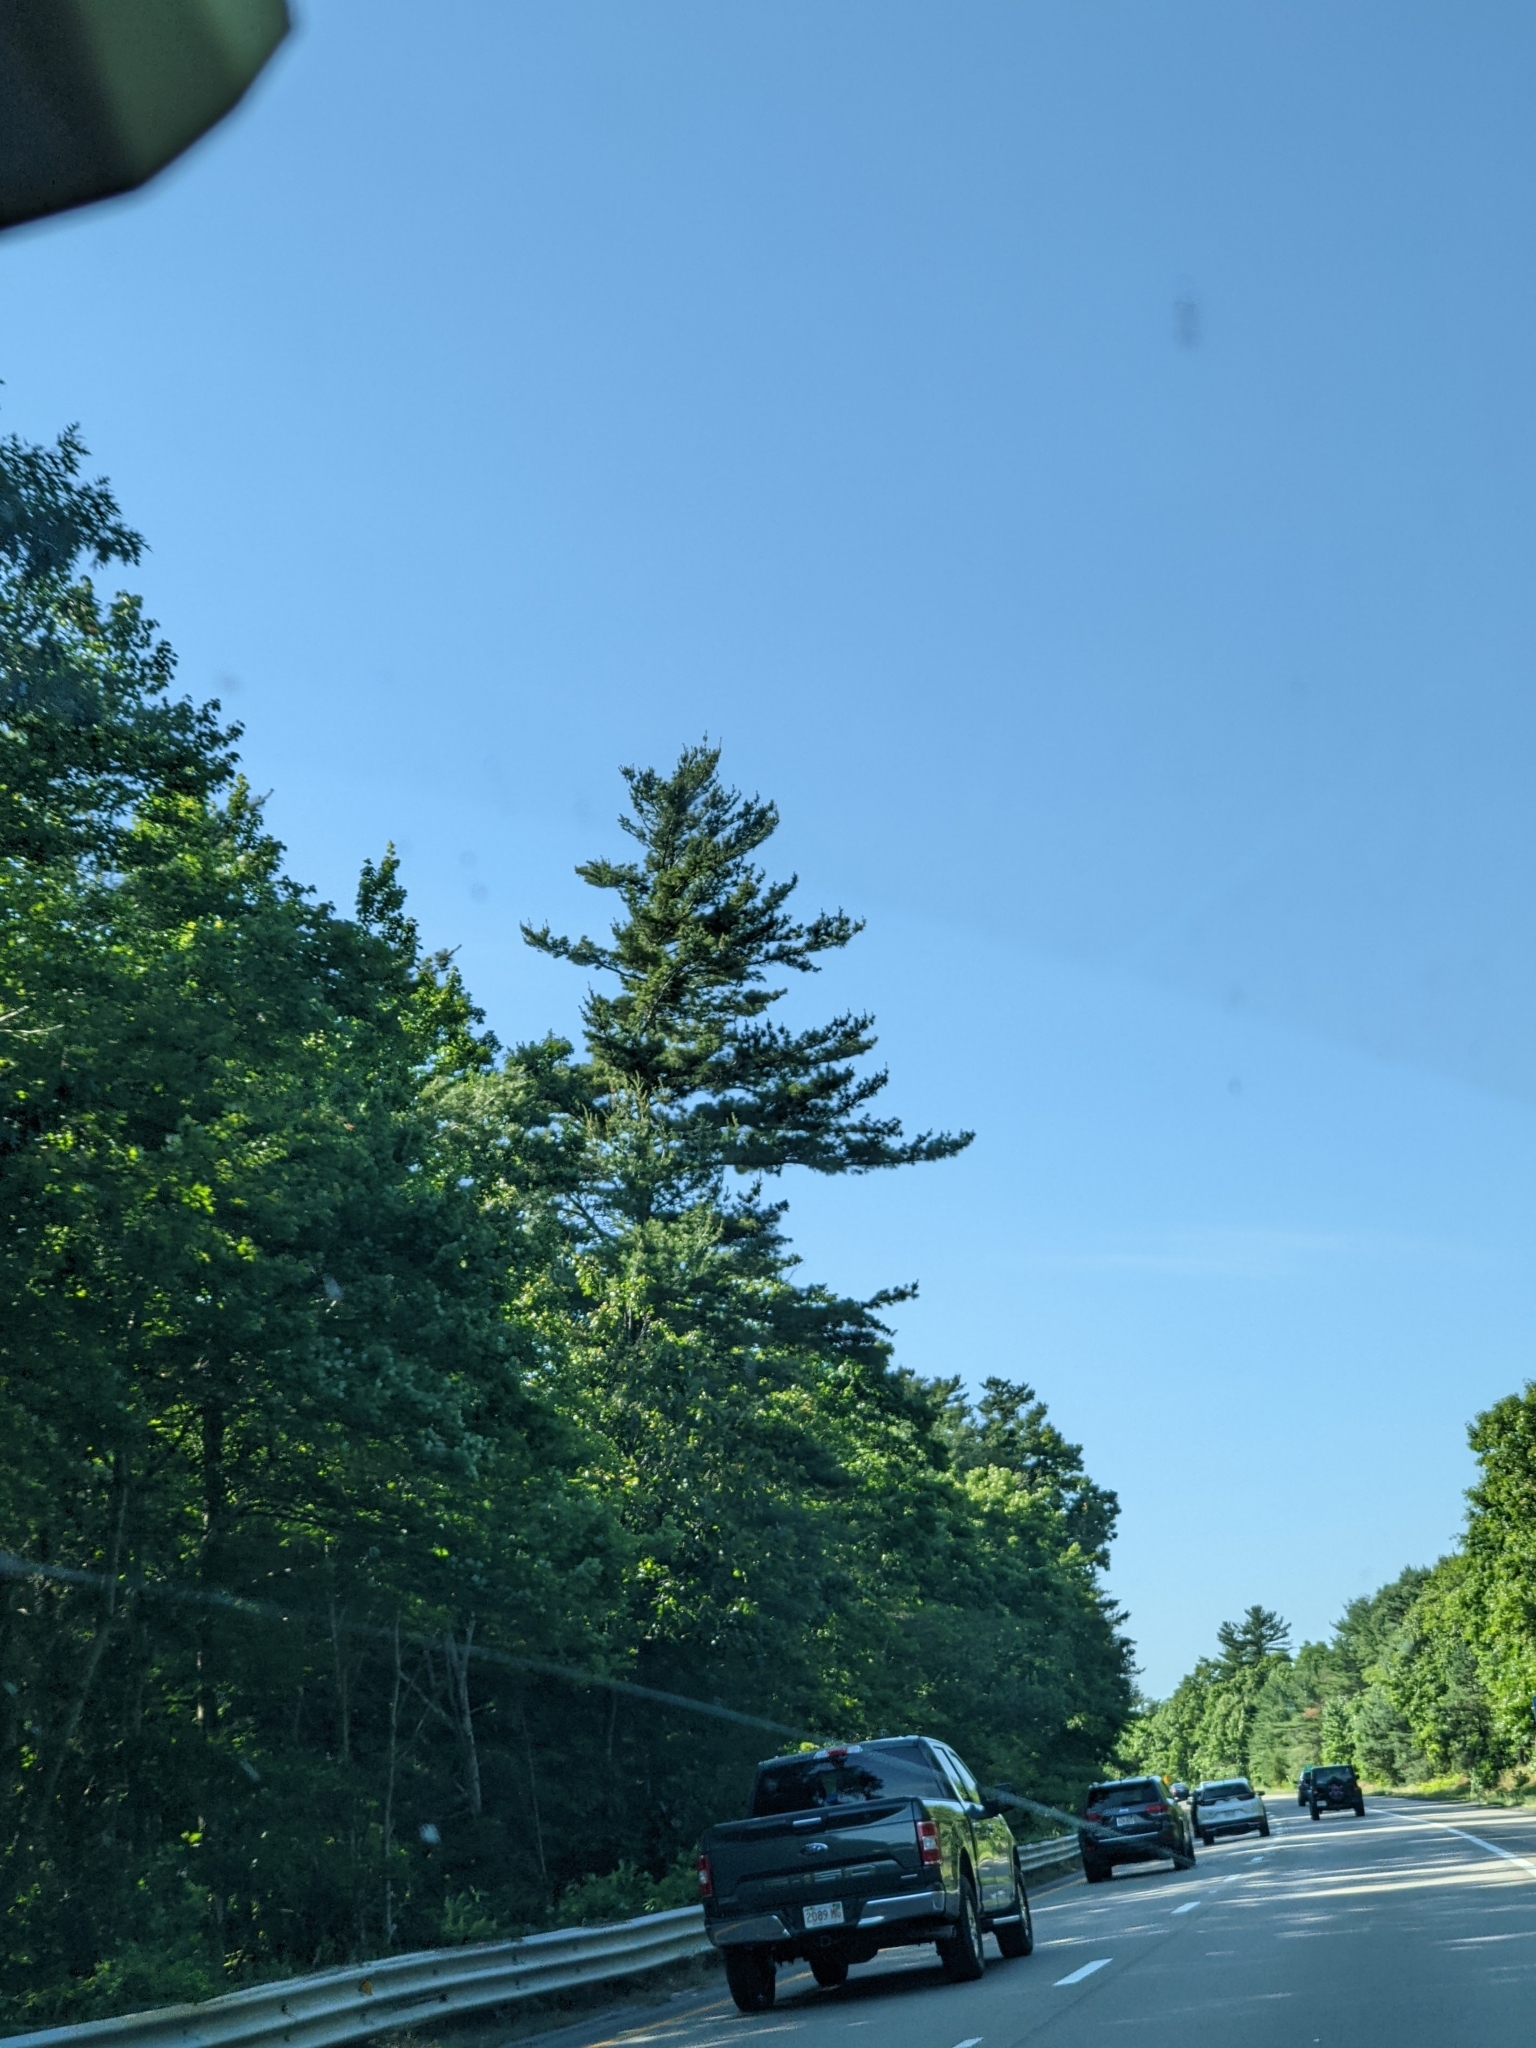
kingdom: Plantae
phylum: Tracheophyta
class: Pinopsida
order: Pinales
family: Pinaceae
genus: Pinus
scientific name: Pinus strobus
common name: Weymouth pine
